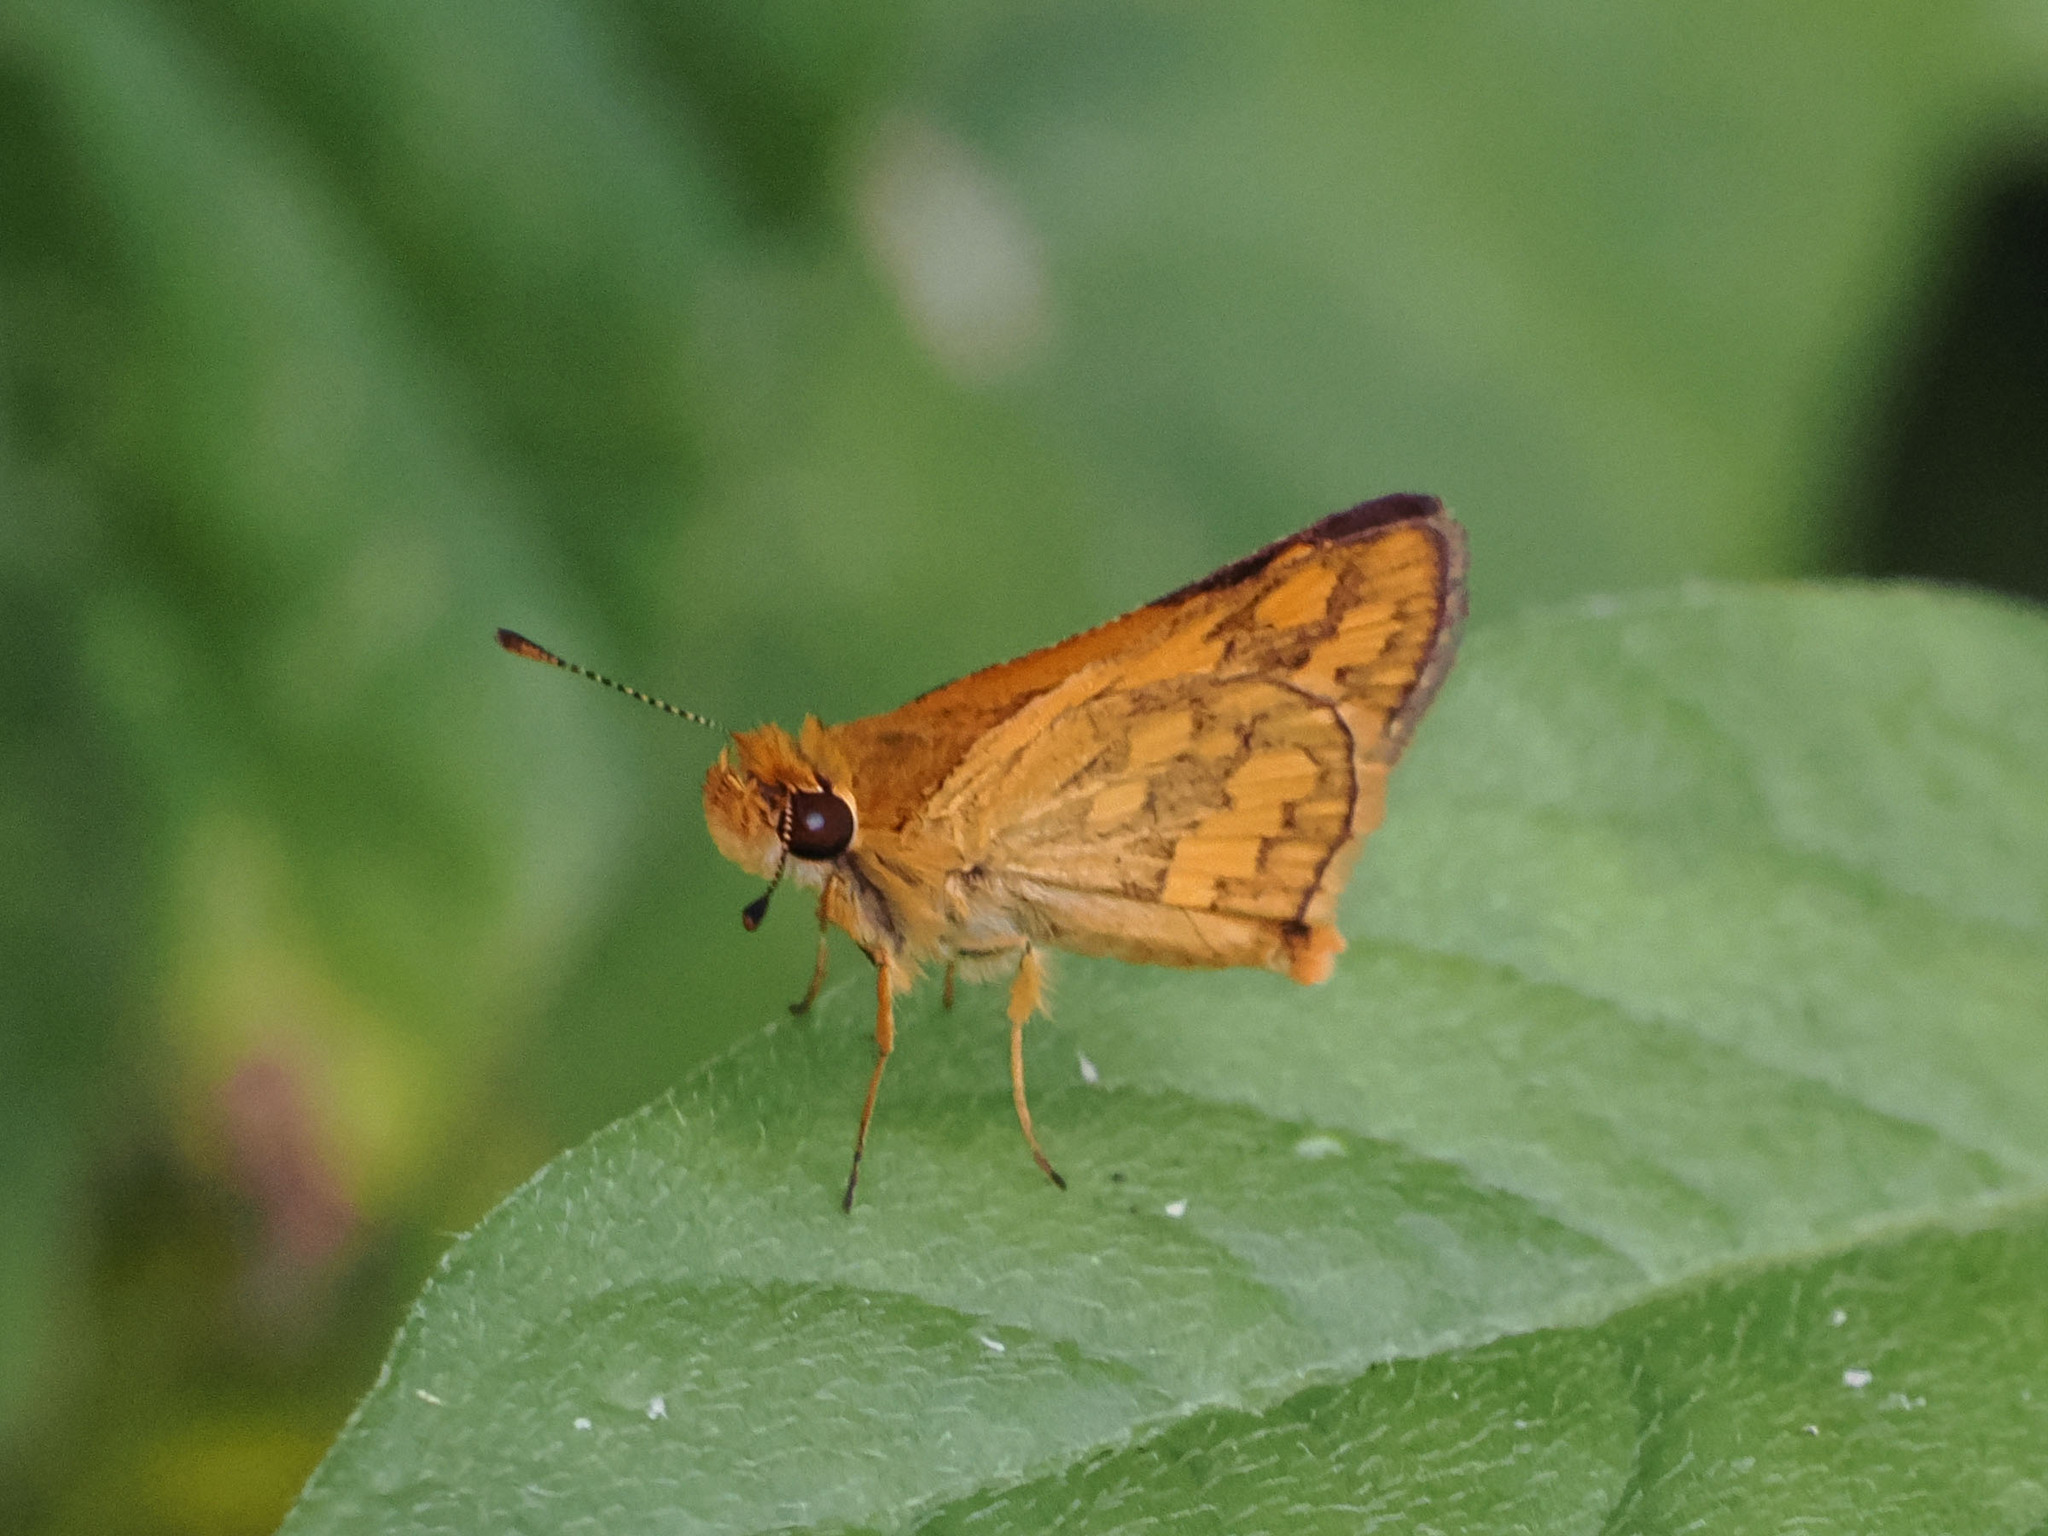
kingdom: Animalia
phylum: Arthropoda
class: Insecta
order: Lepidoptera
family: Hesperiidae
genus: Taractrocera
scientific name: Taractrocera
